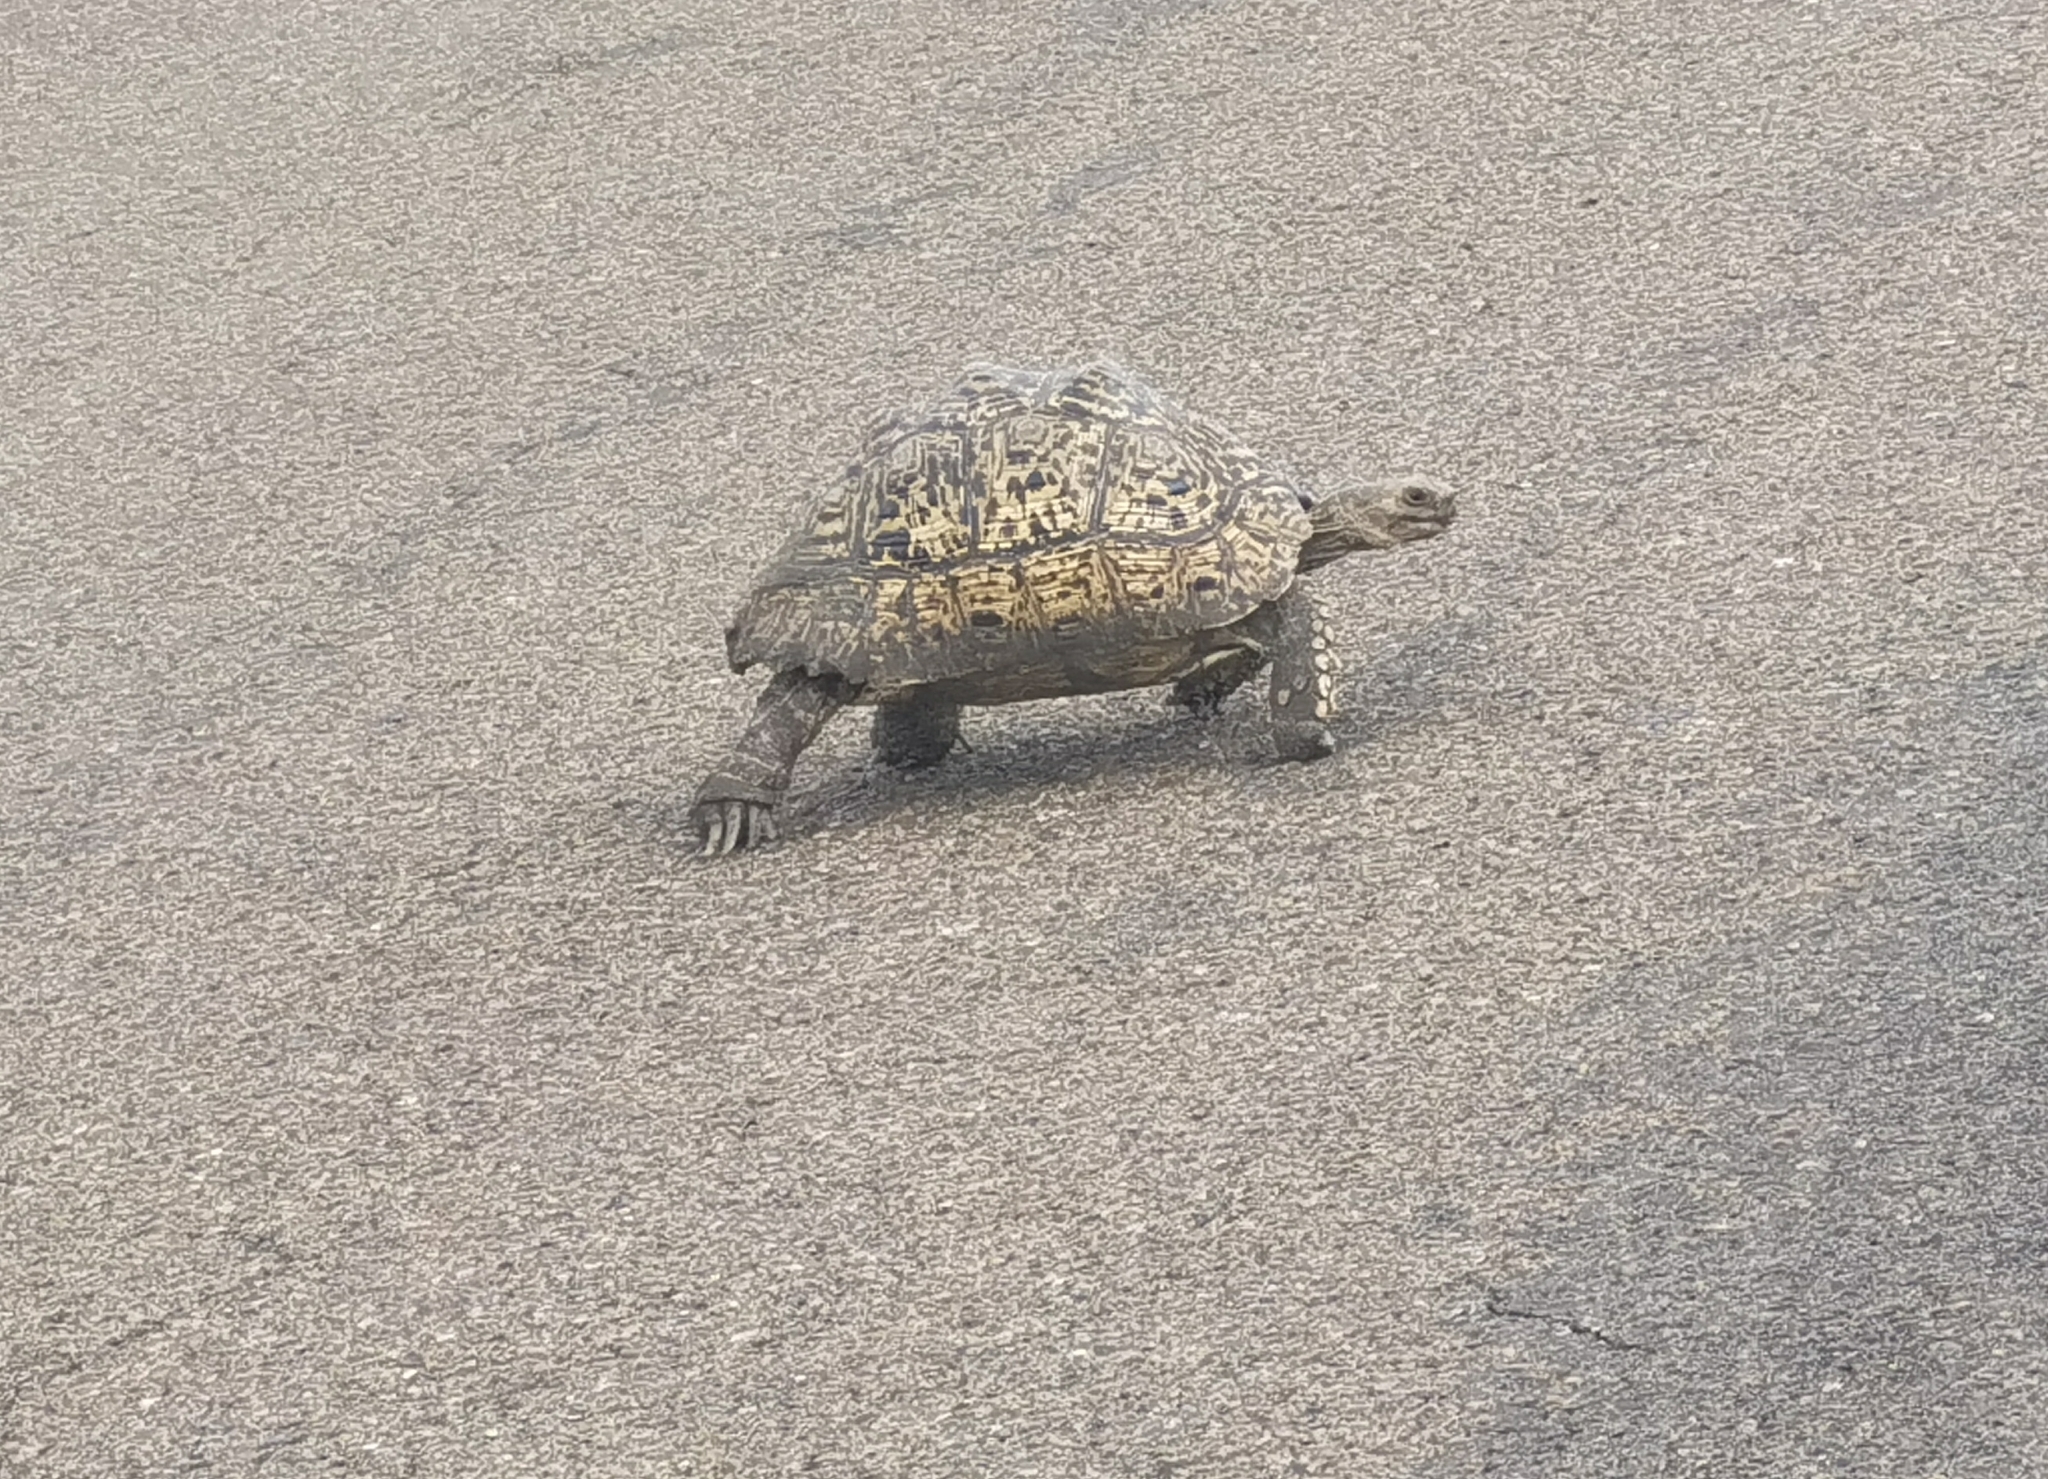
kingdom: Animalia
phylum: Chordata
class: Testudines
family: Testudinidae
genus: Stigmochelys
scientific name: Stigmochelys pardalis
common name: Leopard tortoise
